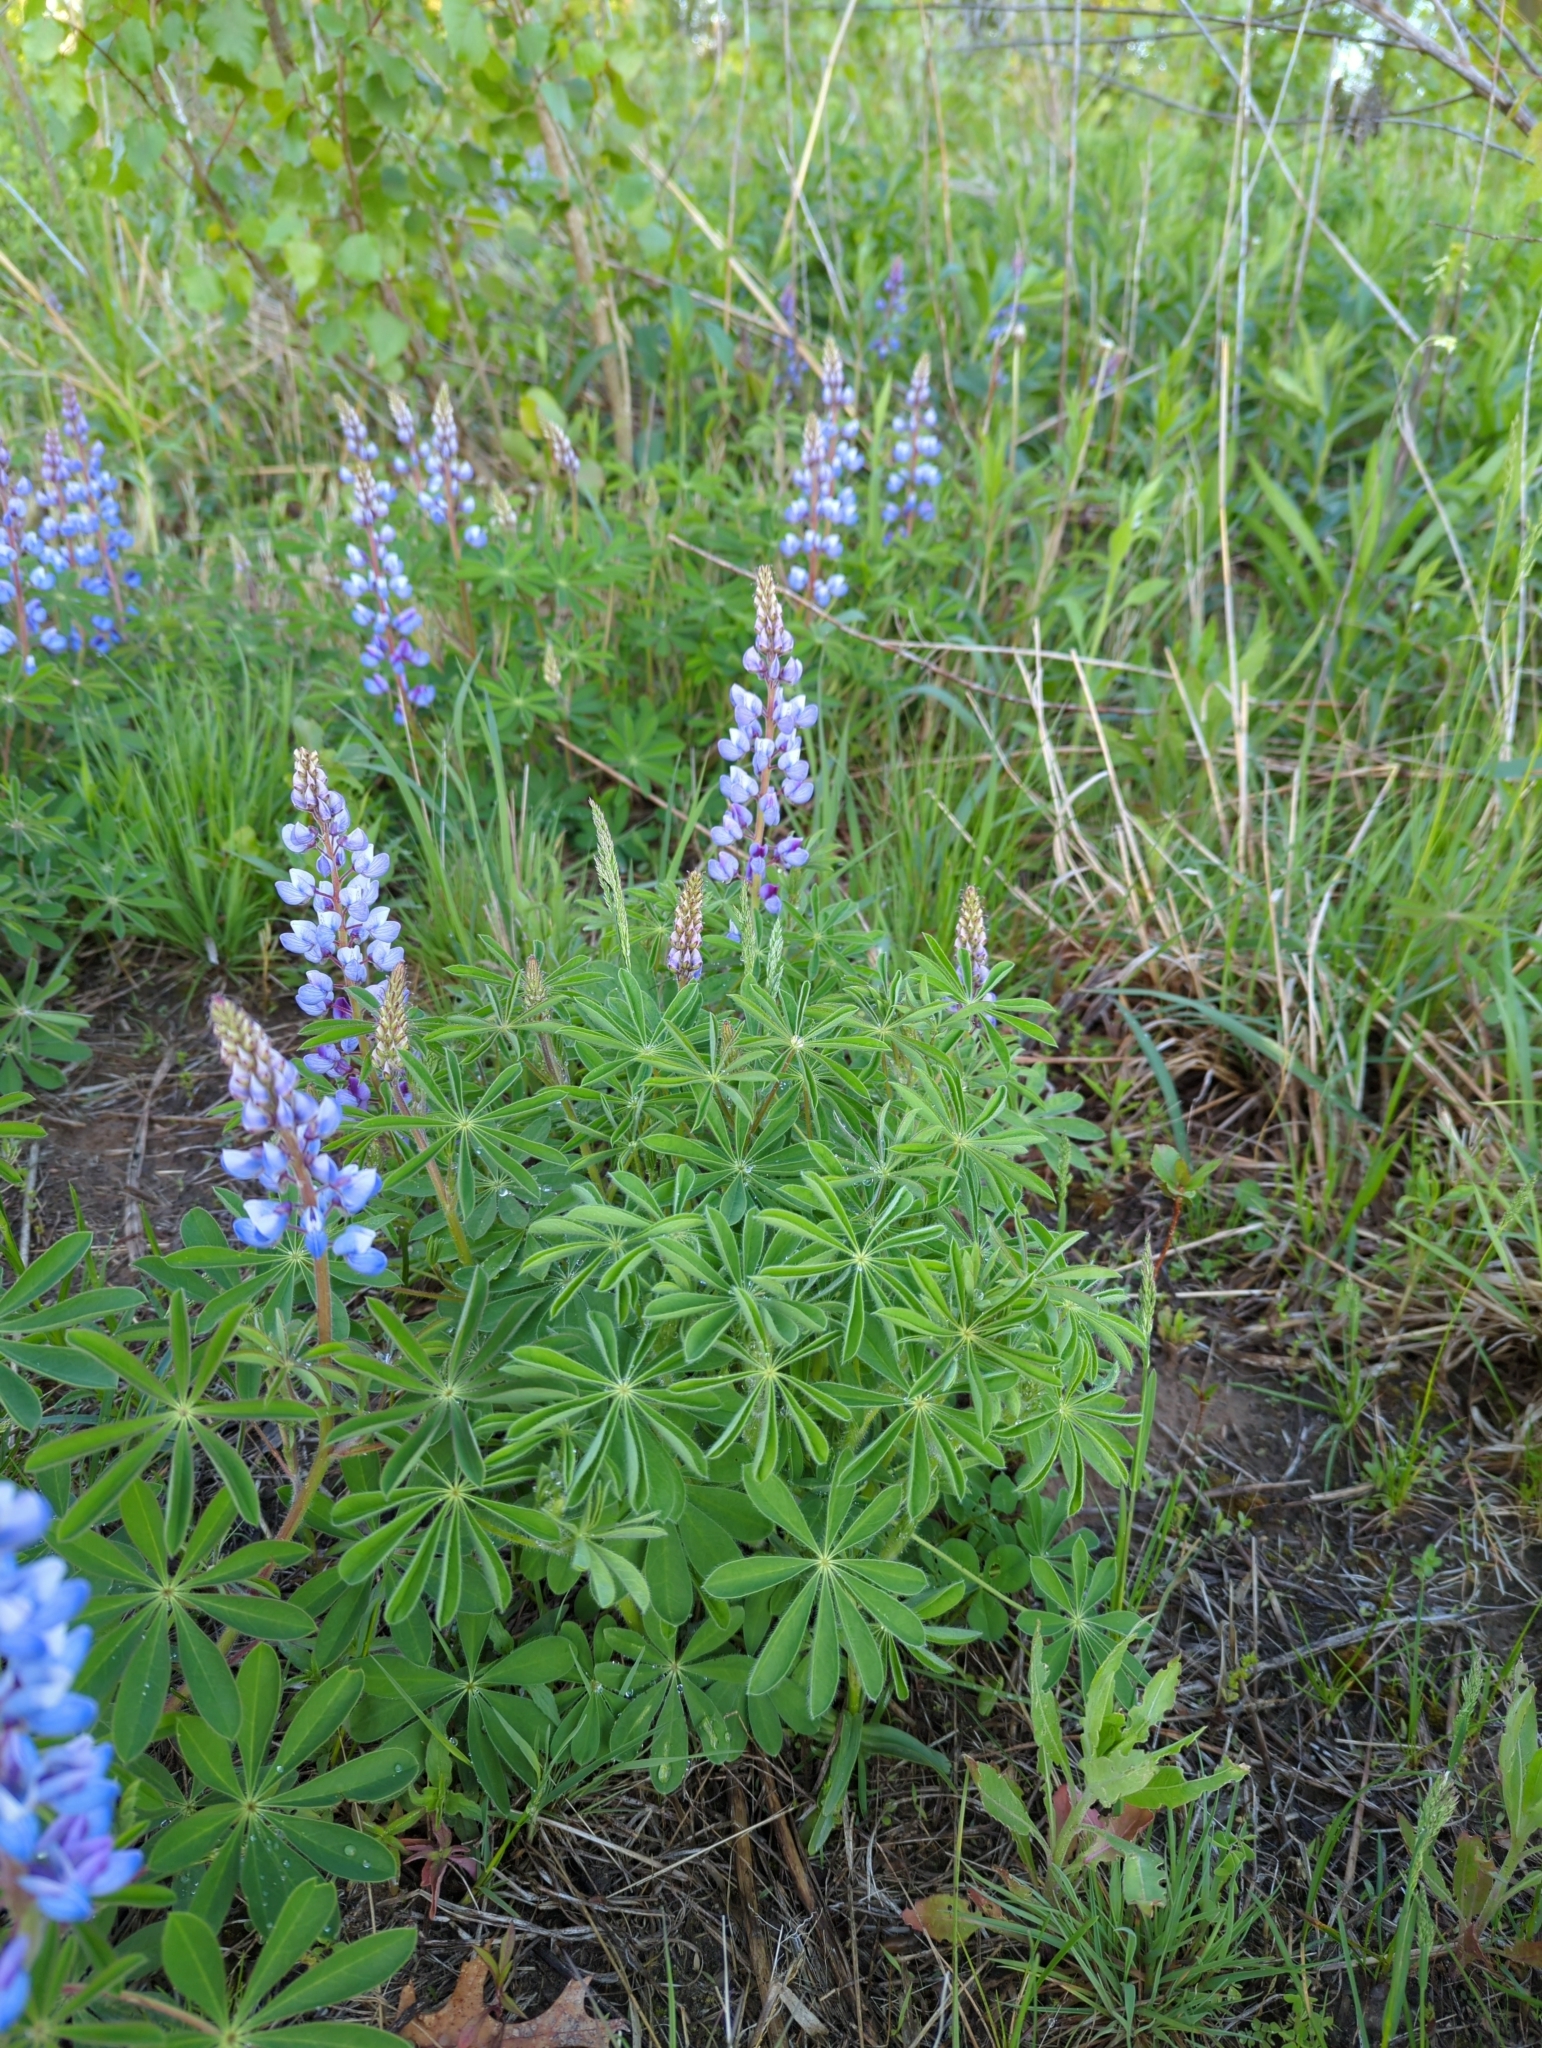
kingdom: Plantae
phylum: Tracheophyta
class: Magnoliopsida
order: Fabales
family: Fabaceae
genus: Lupinus
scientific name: Lupinus perennis
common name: Sundial lupine
